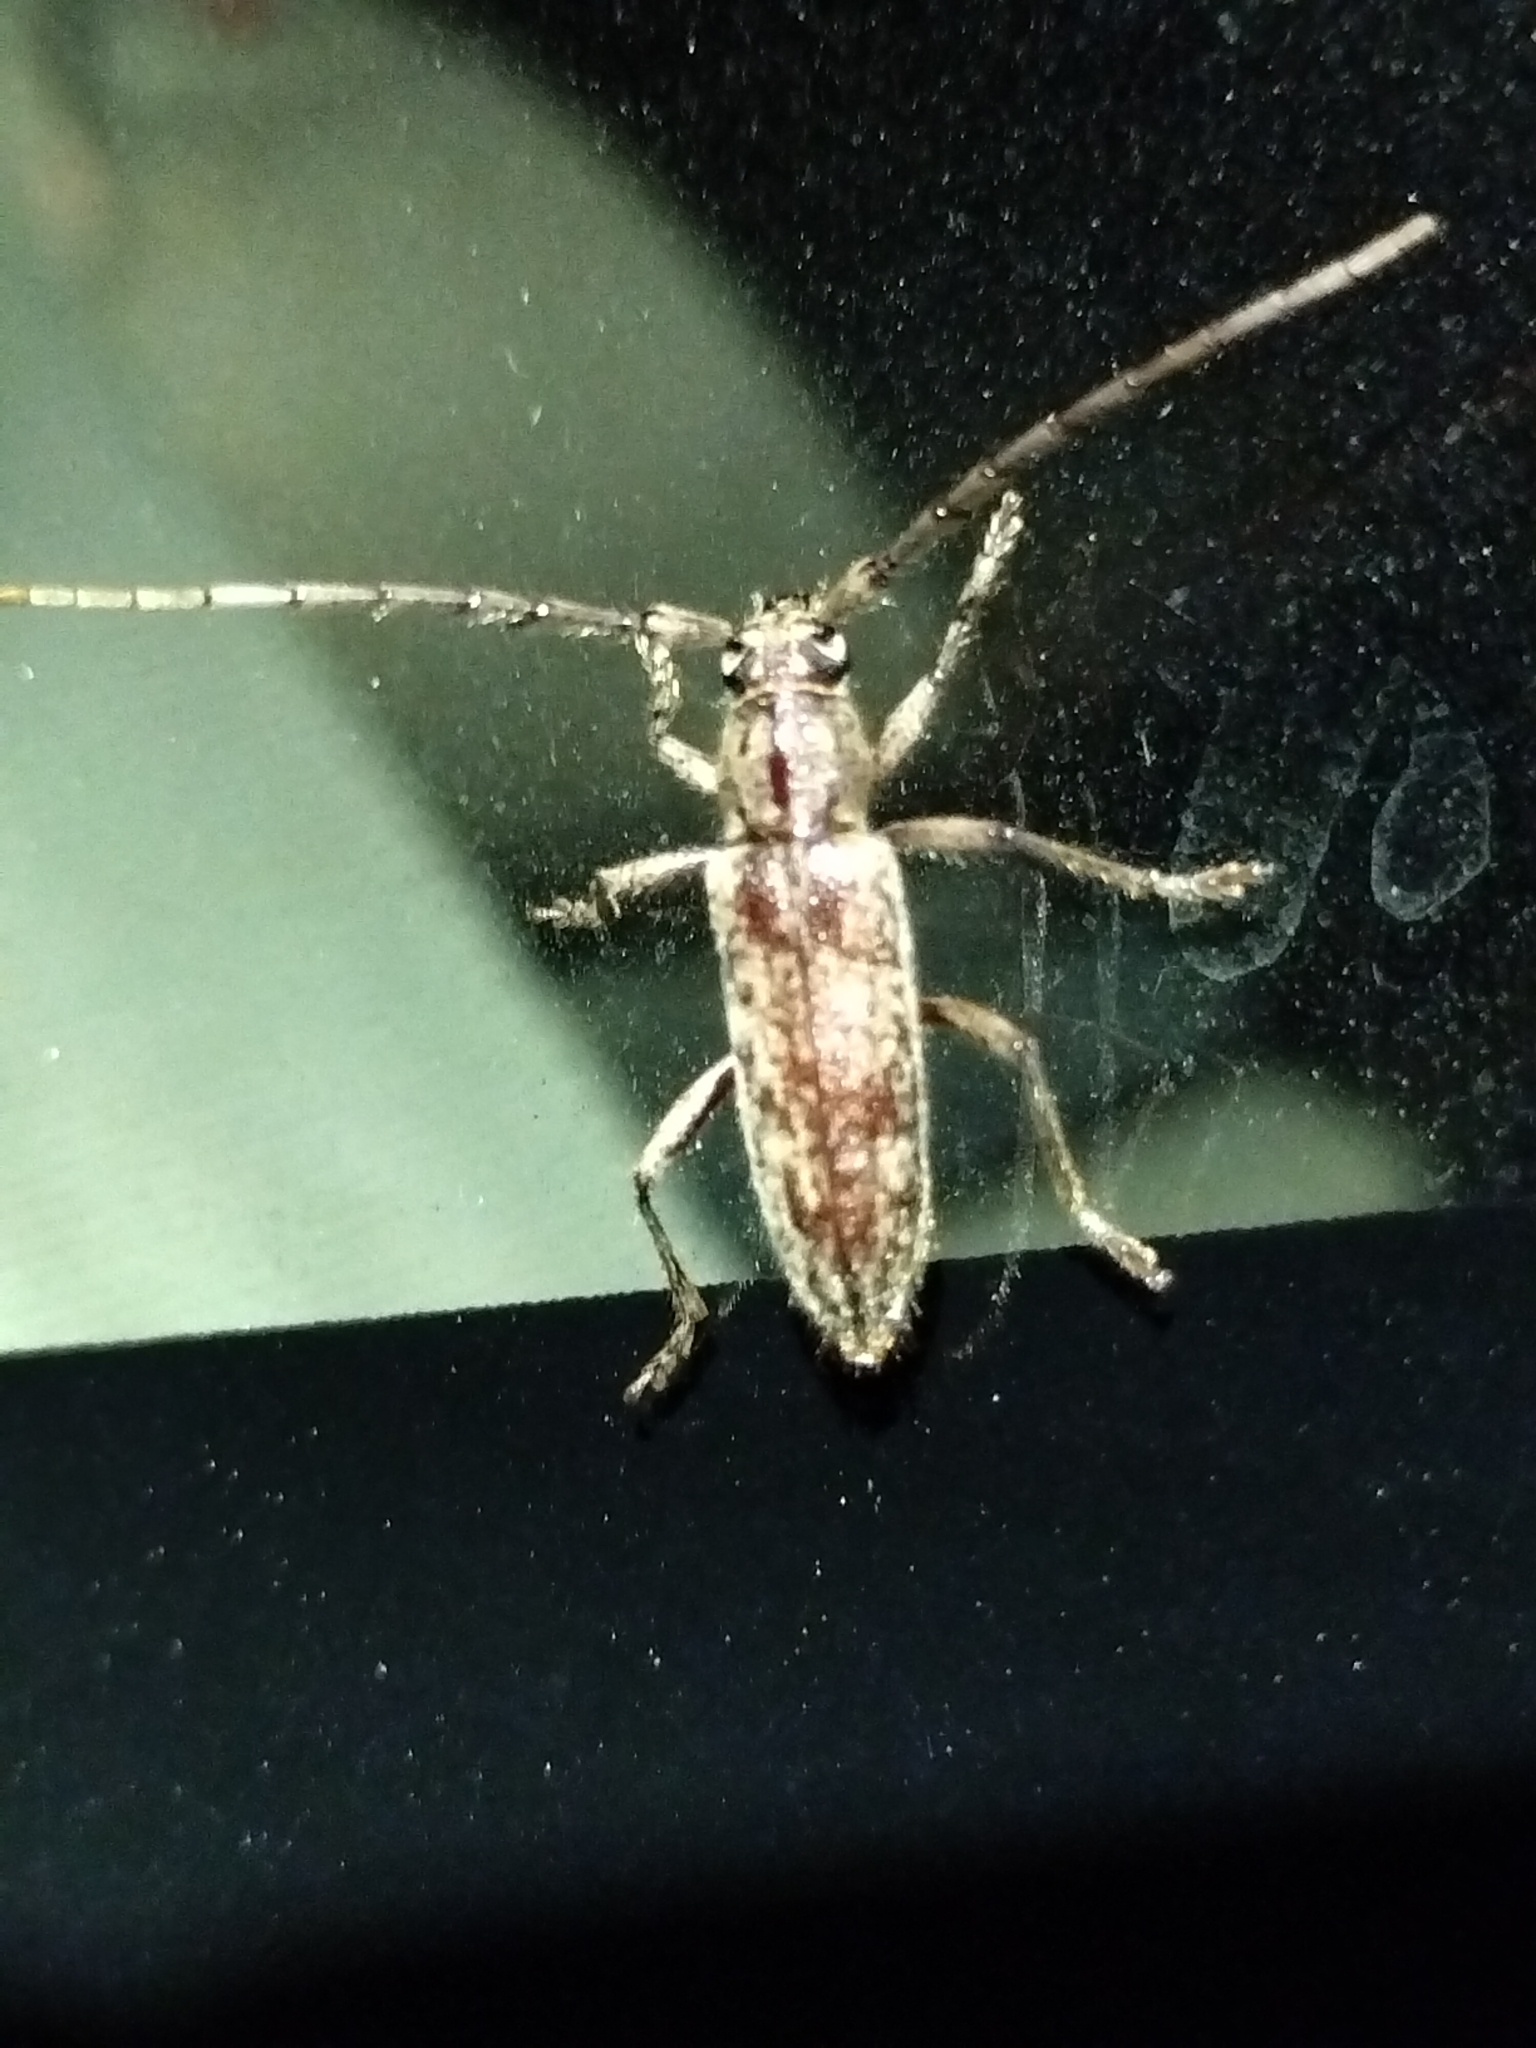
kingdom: Animalia
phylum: Arthropoda
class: Insecta
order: Coleoptera
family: Cerambycidae
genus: Elaphidion
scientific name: Elaphidion mucronatum
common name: Spined oak borer
